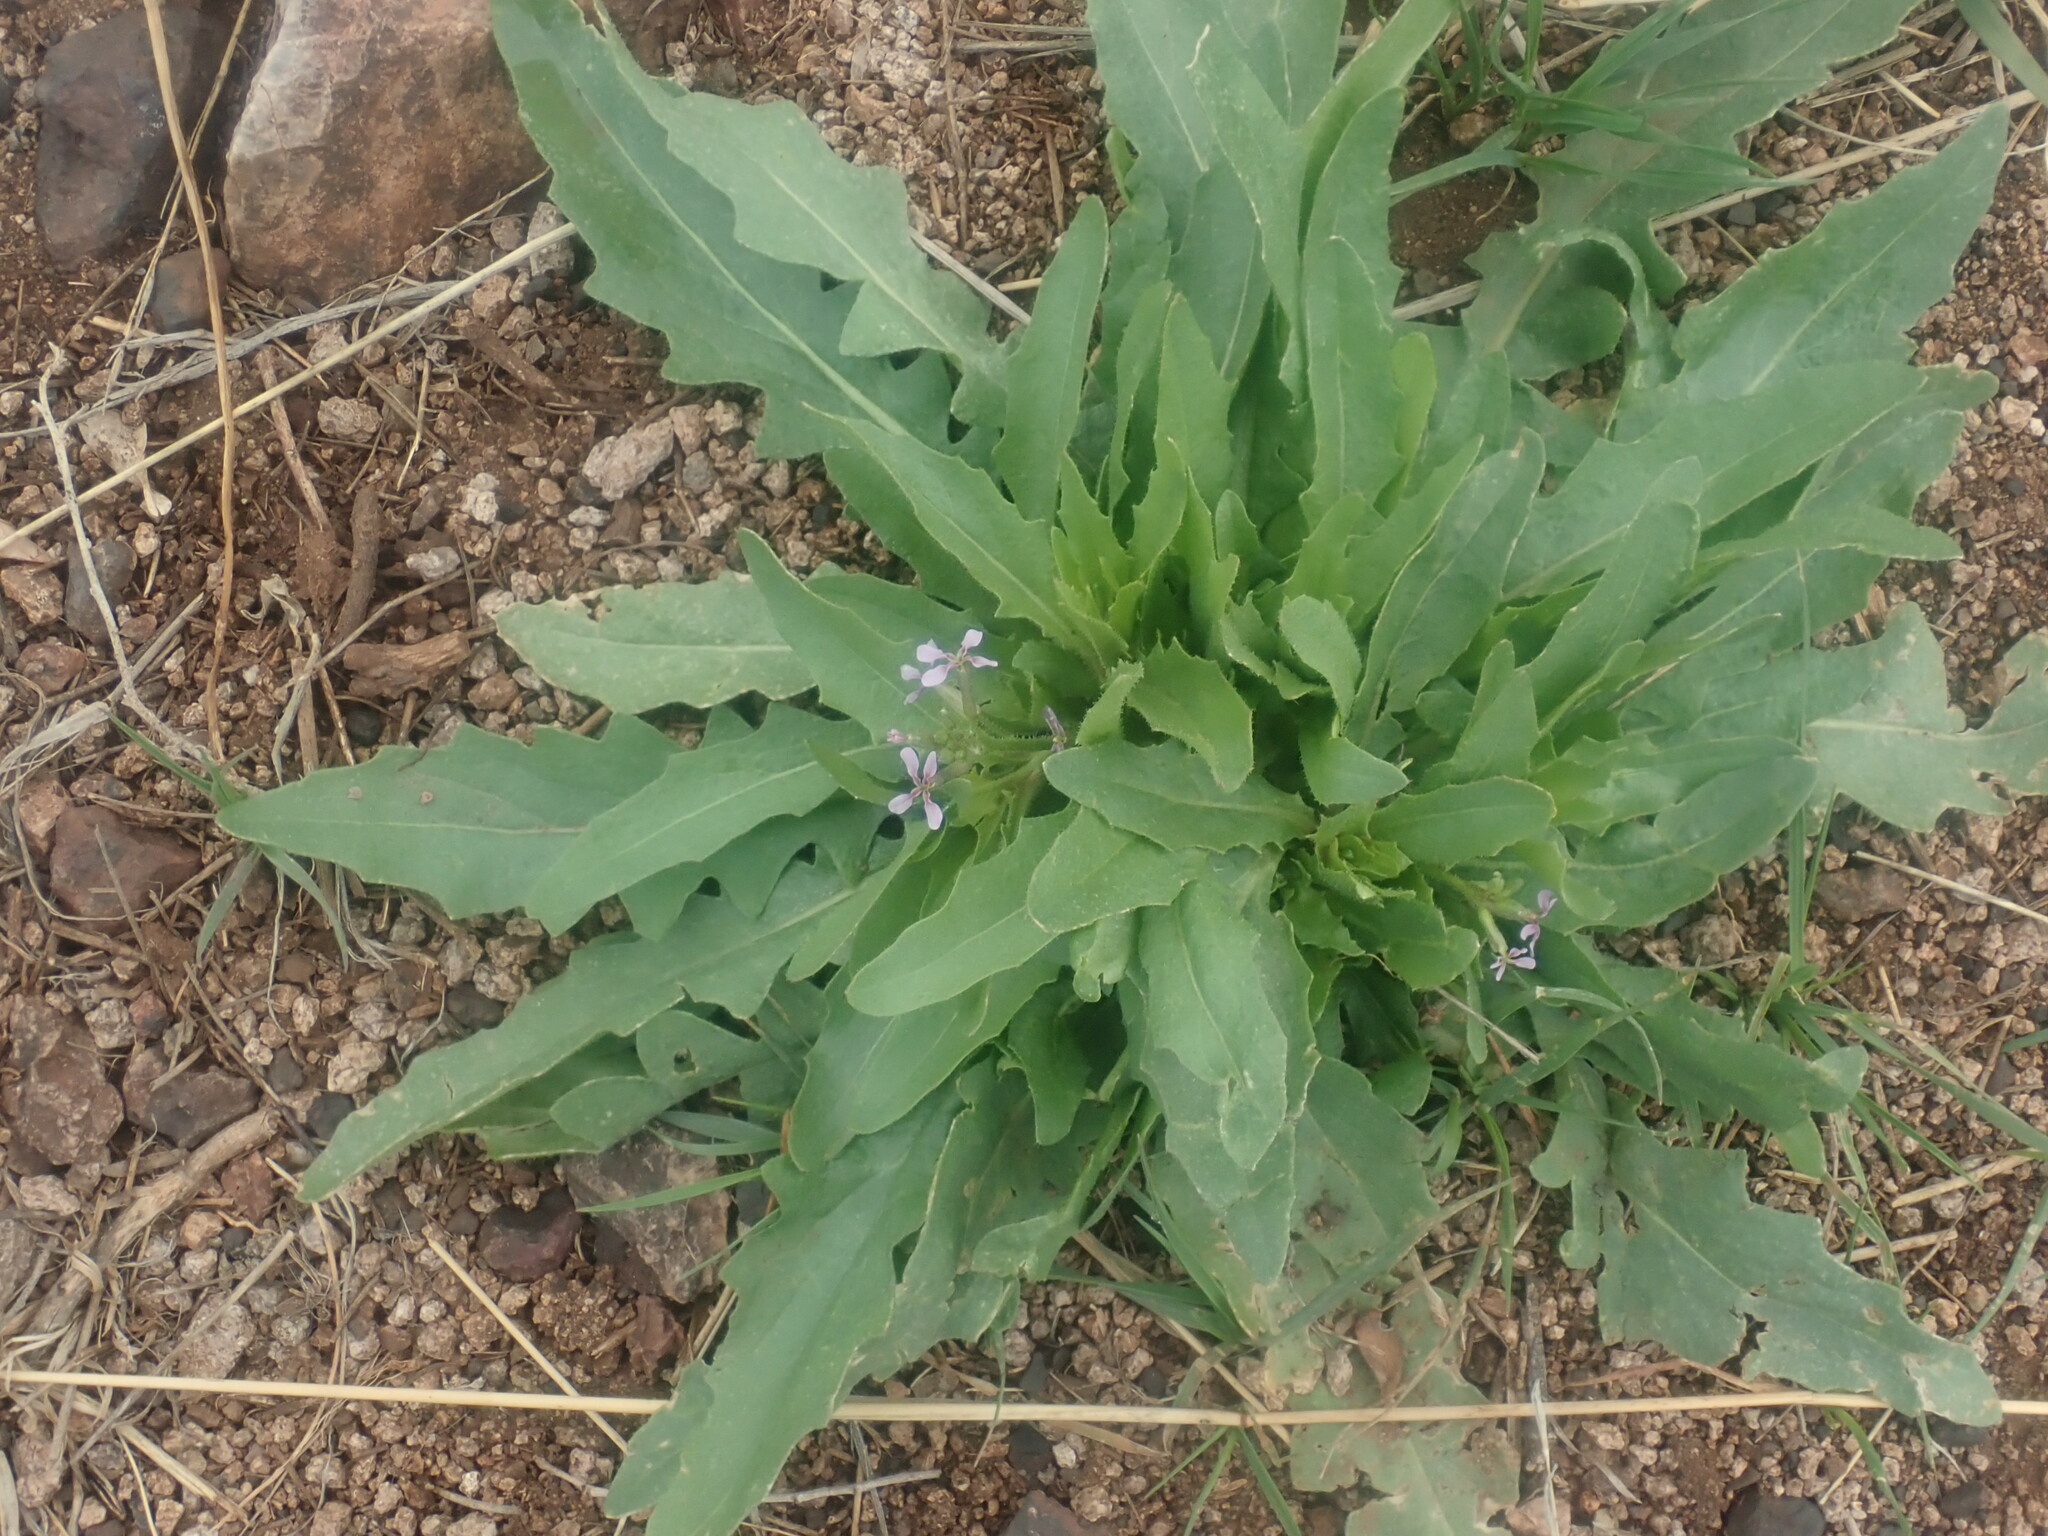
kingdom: Plantae
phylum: Tracheophyta
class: Magnoliopsida
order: Brassicales
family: Brassicaceae
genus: Chorispora
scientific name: Chorispora tenella
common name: Crossflower
